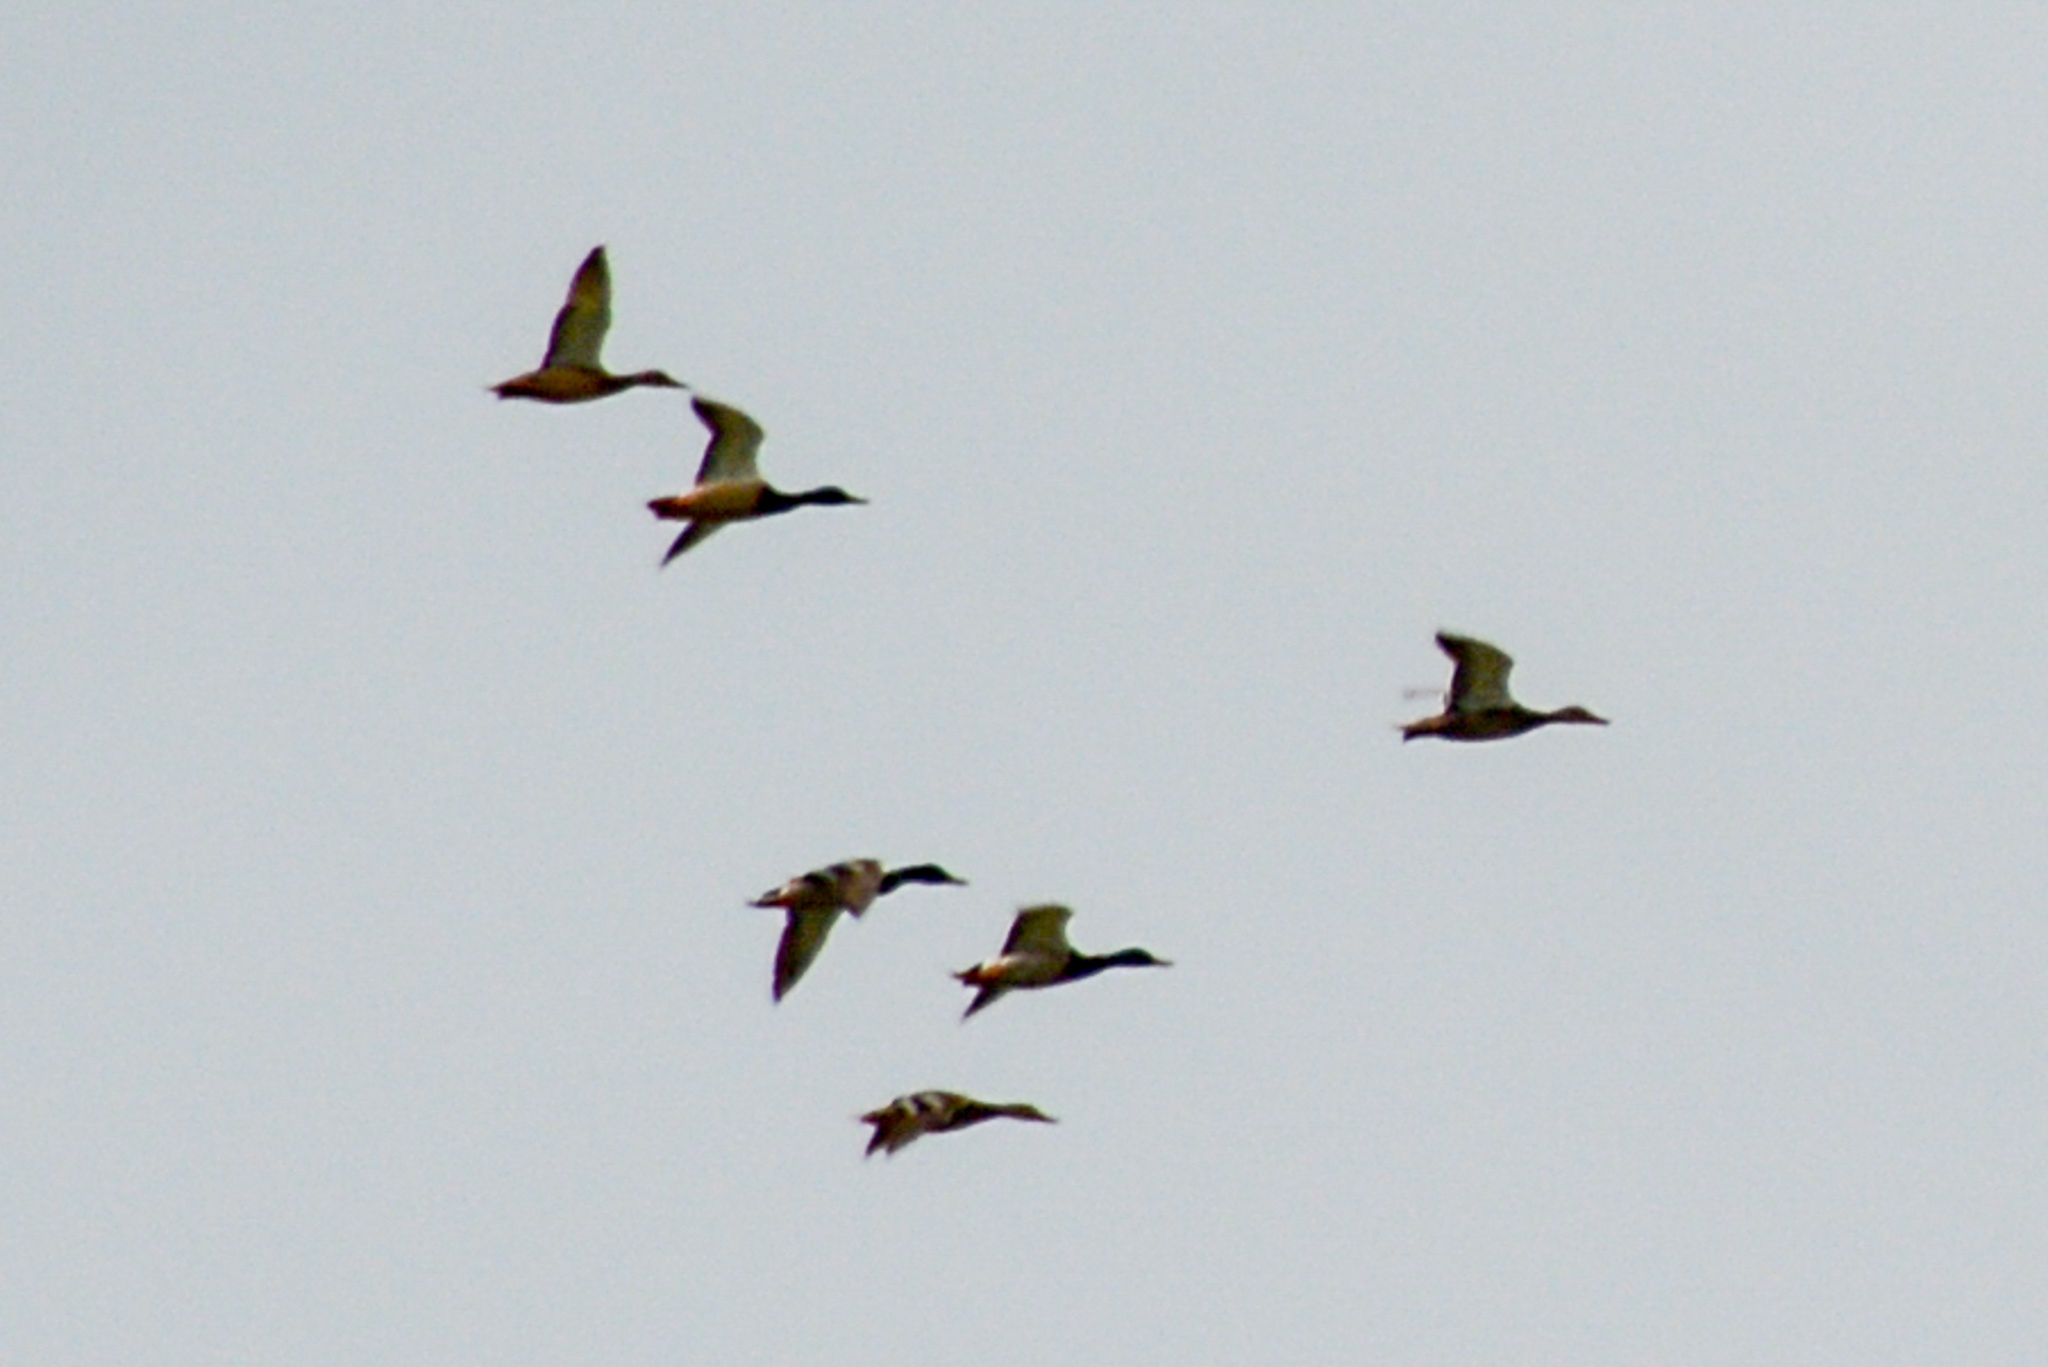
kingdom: Animalia
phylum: Chordata
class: Aves
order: Anseriformes
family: Anatidae
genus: Anas
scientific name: Anas platyrhynchos
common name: Mallard
